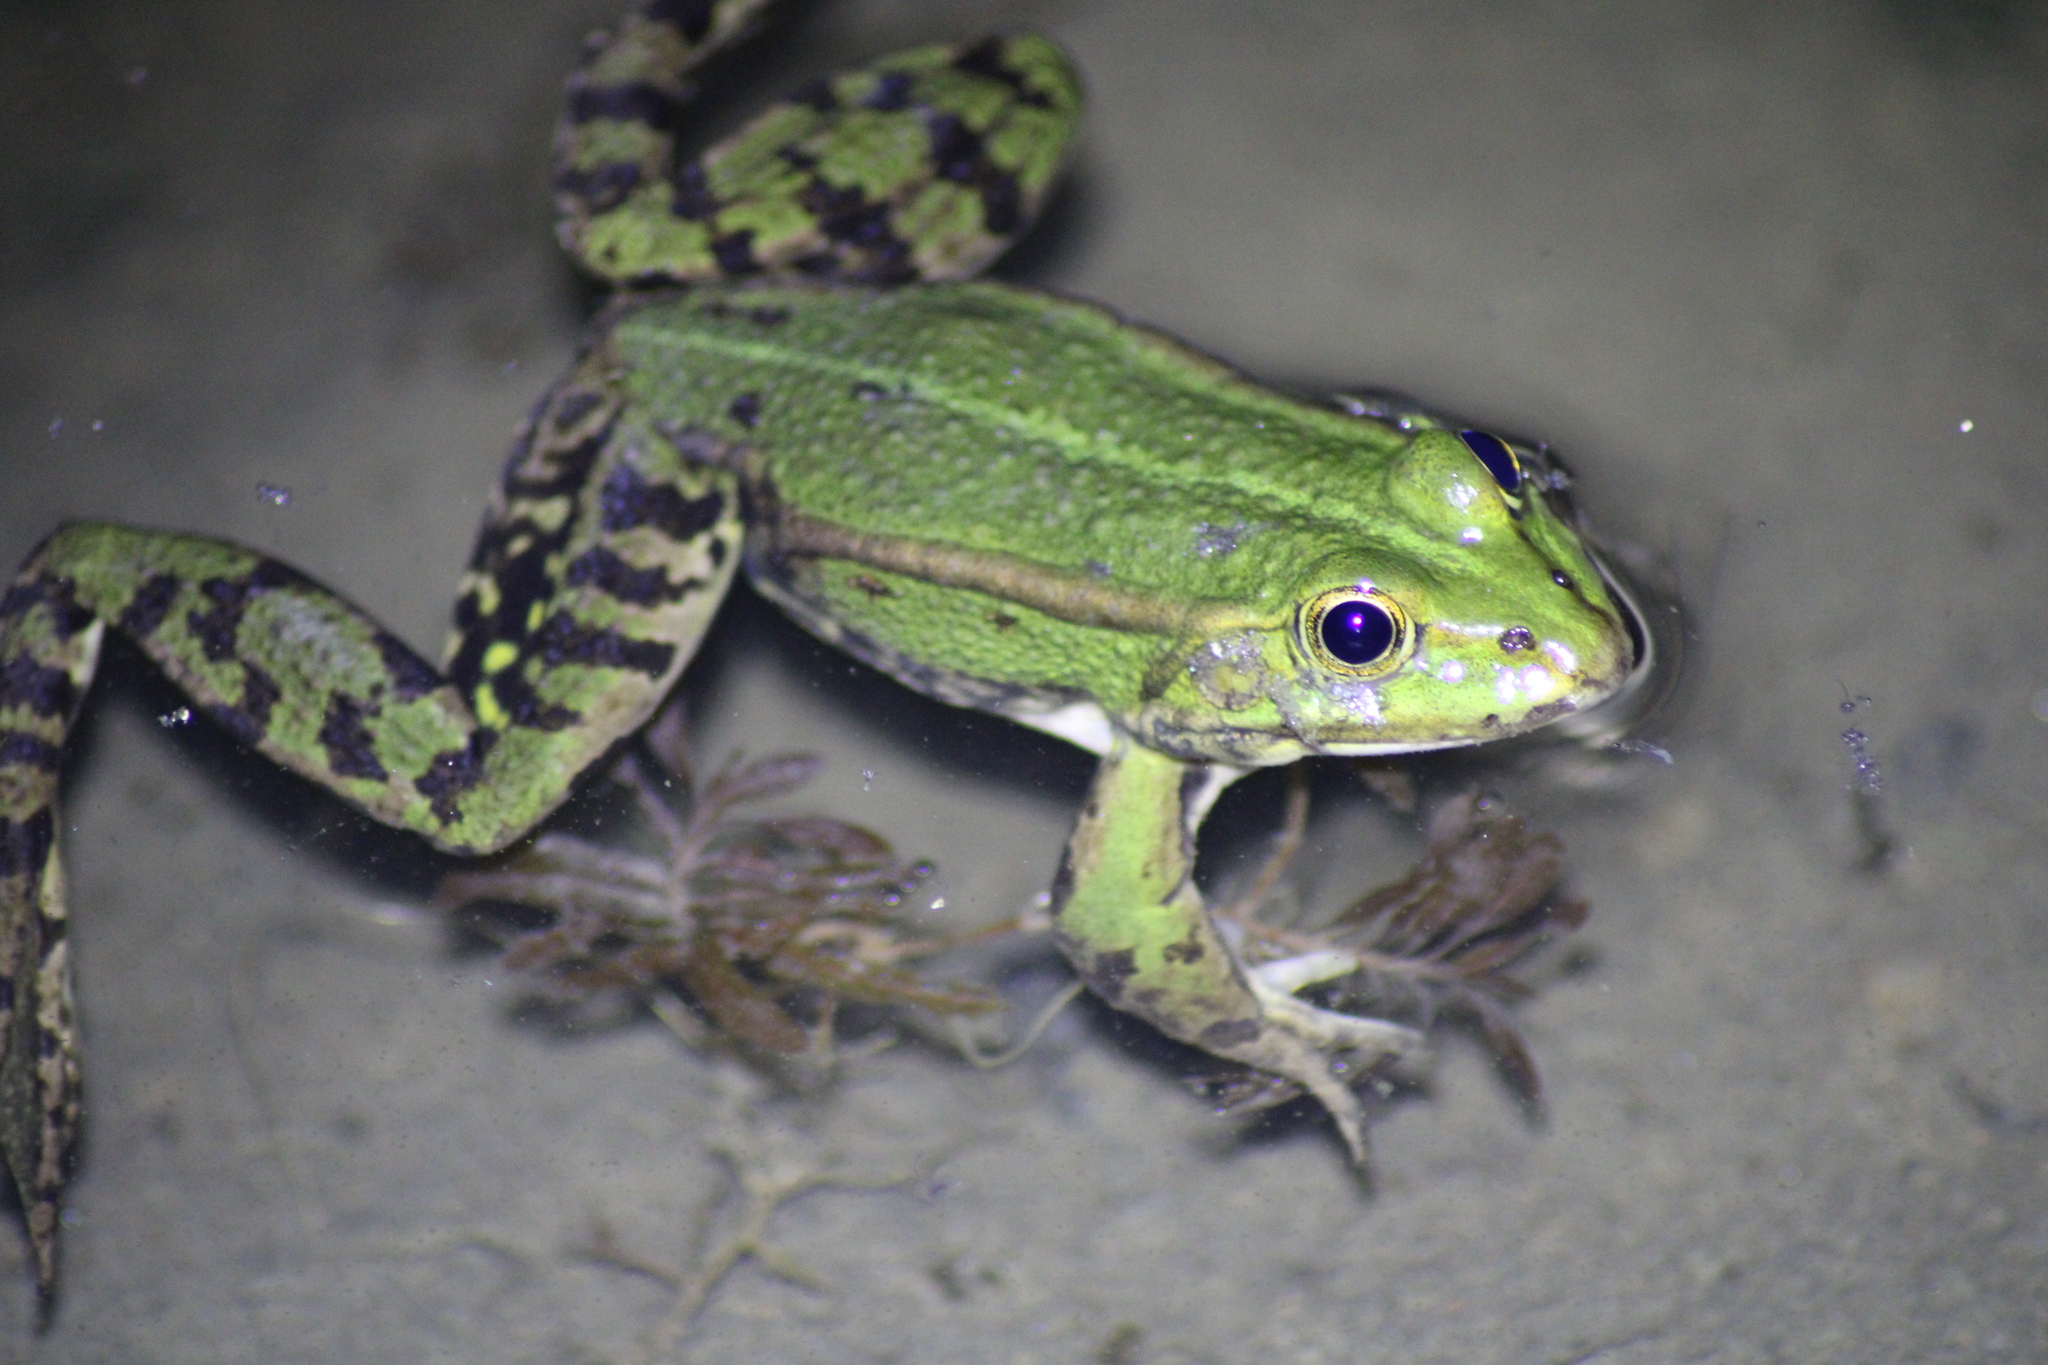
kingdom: Animalia
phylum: Chordata
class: Amphibia
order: Anura
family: Ranidae
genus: Pelophylax
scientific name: Pelophylax
